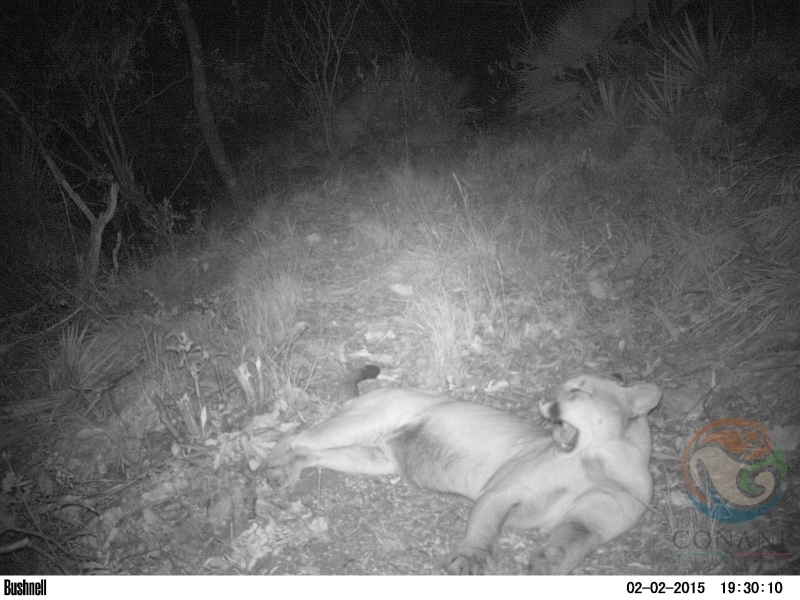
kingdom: Animalia
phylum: Chordata
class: Mammalia
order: Carnivora
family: Felidae
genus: Puma
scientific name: Puma concolor
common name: Puma
